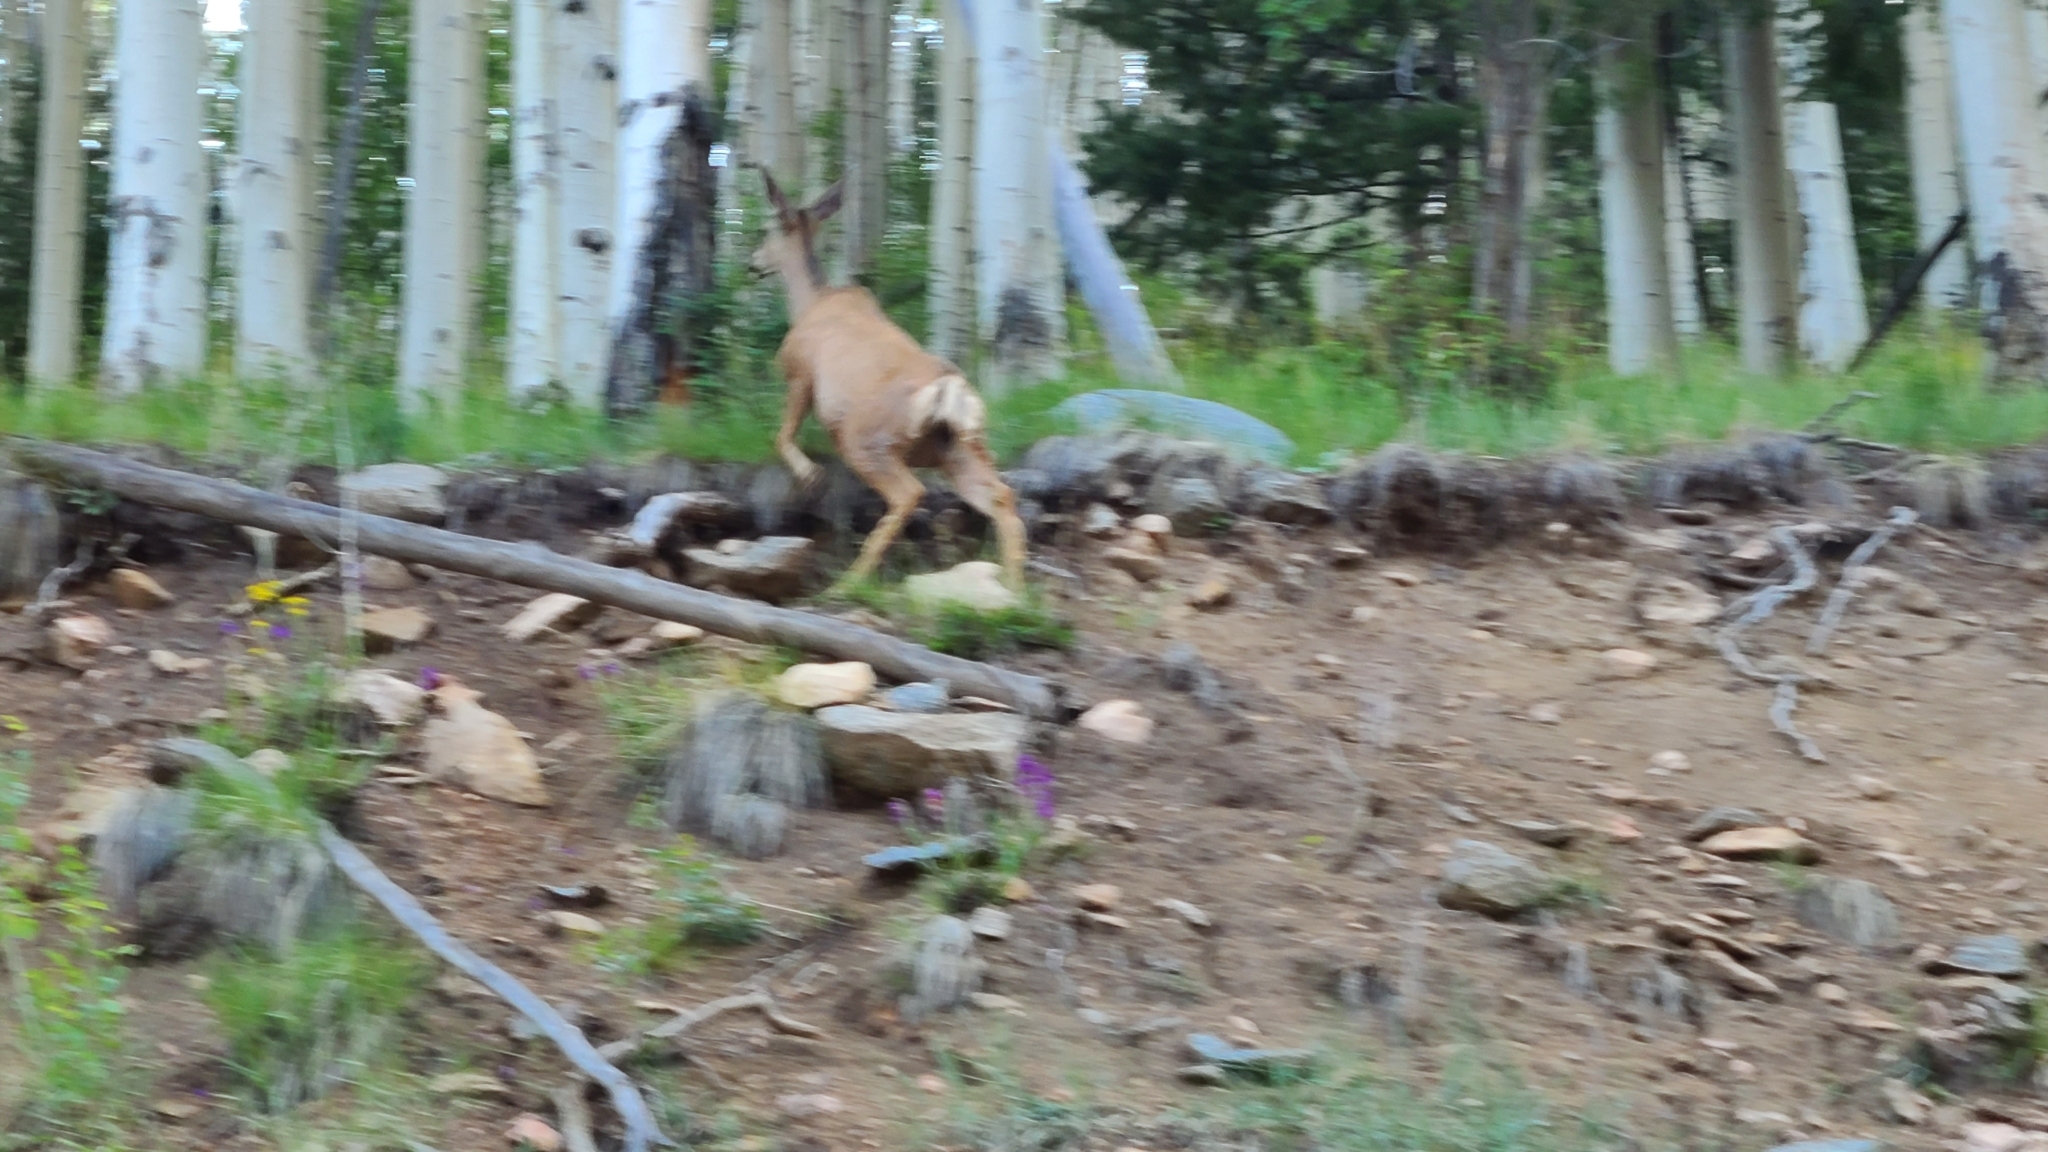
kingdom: Animalia
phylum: Chordata
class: Mammalia
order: Artiodactyla
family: Cervidae
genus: Odocoileus
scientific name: Odocoileus hemionus
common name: Mule deer
